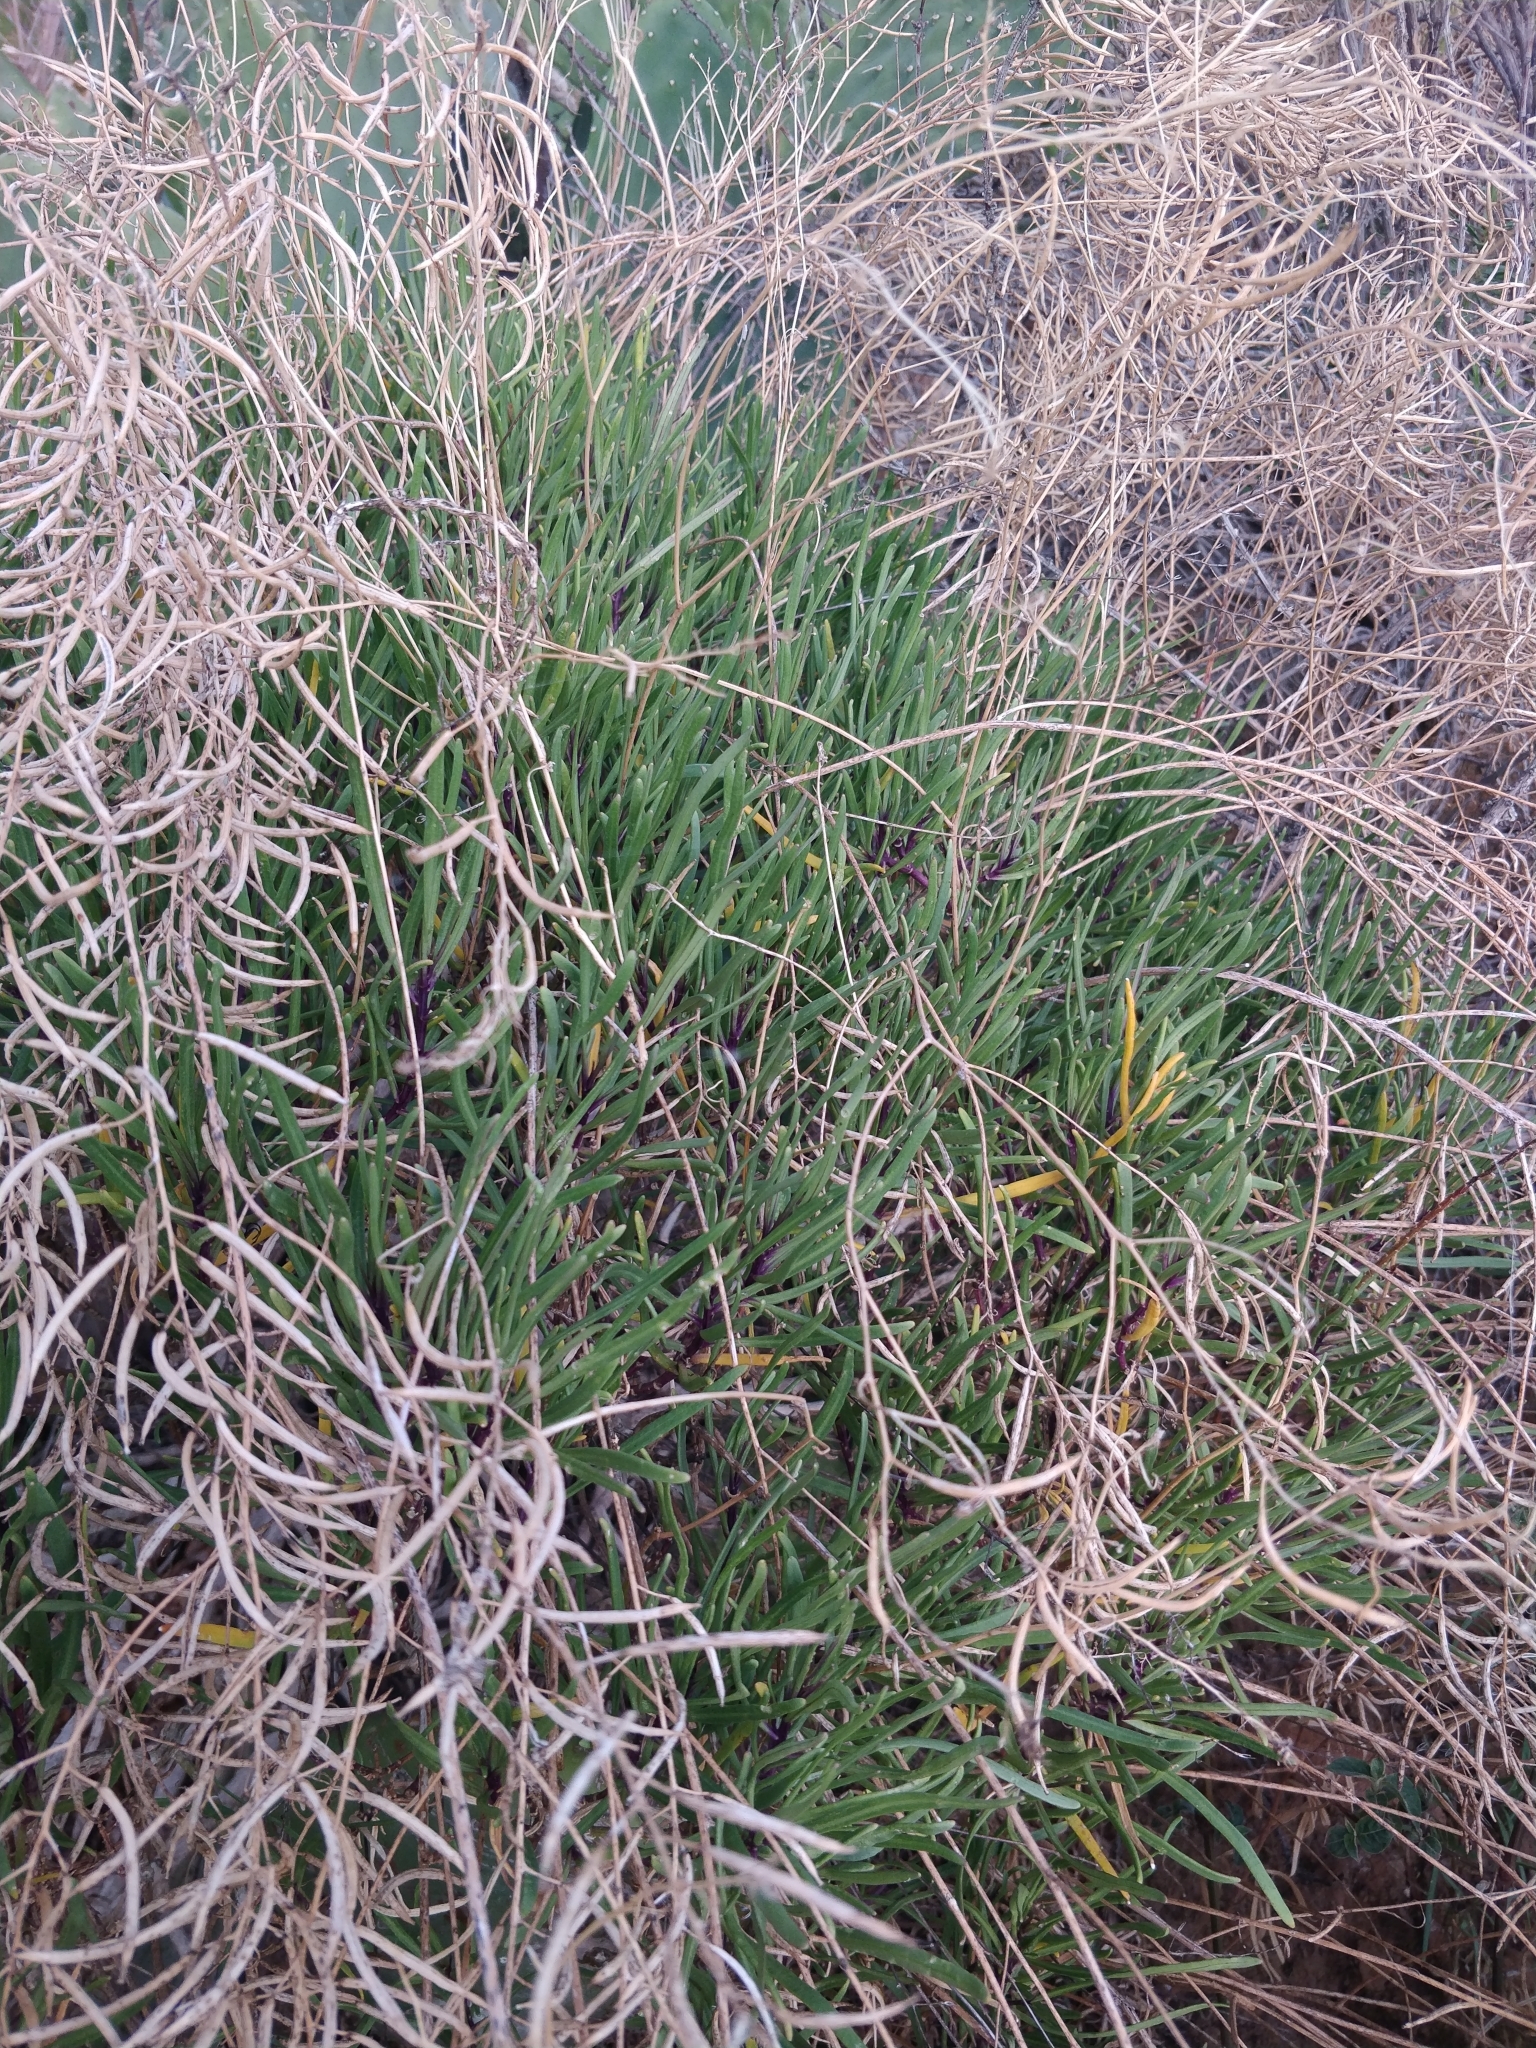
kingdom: Plantae
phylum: Tracheophyta
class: Magnoliopsida
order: Brassicales
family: Brassicaceae
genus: Sinapidendron
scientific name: Sinapidendron angustifolium
